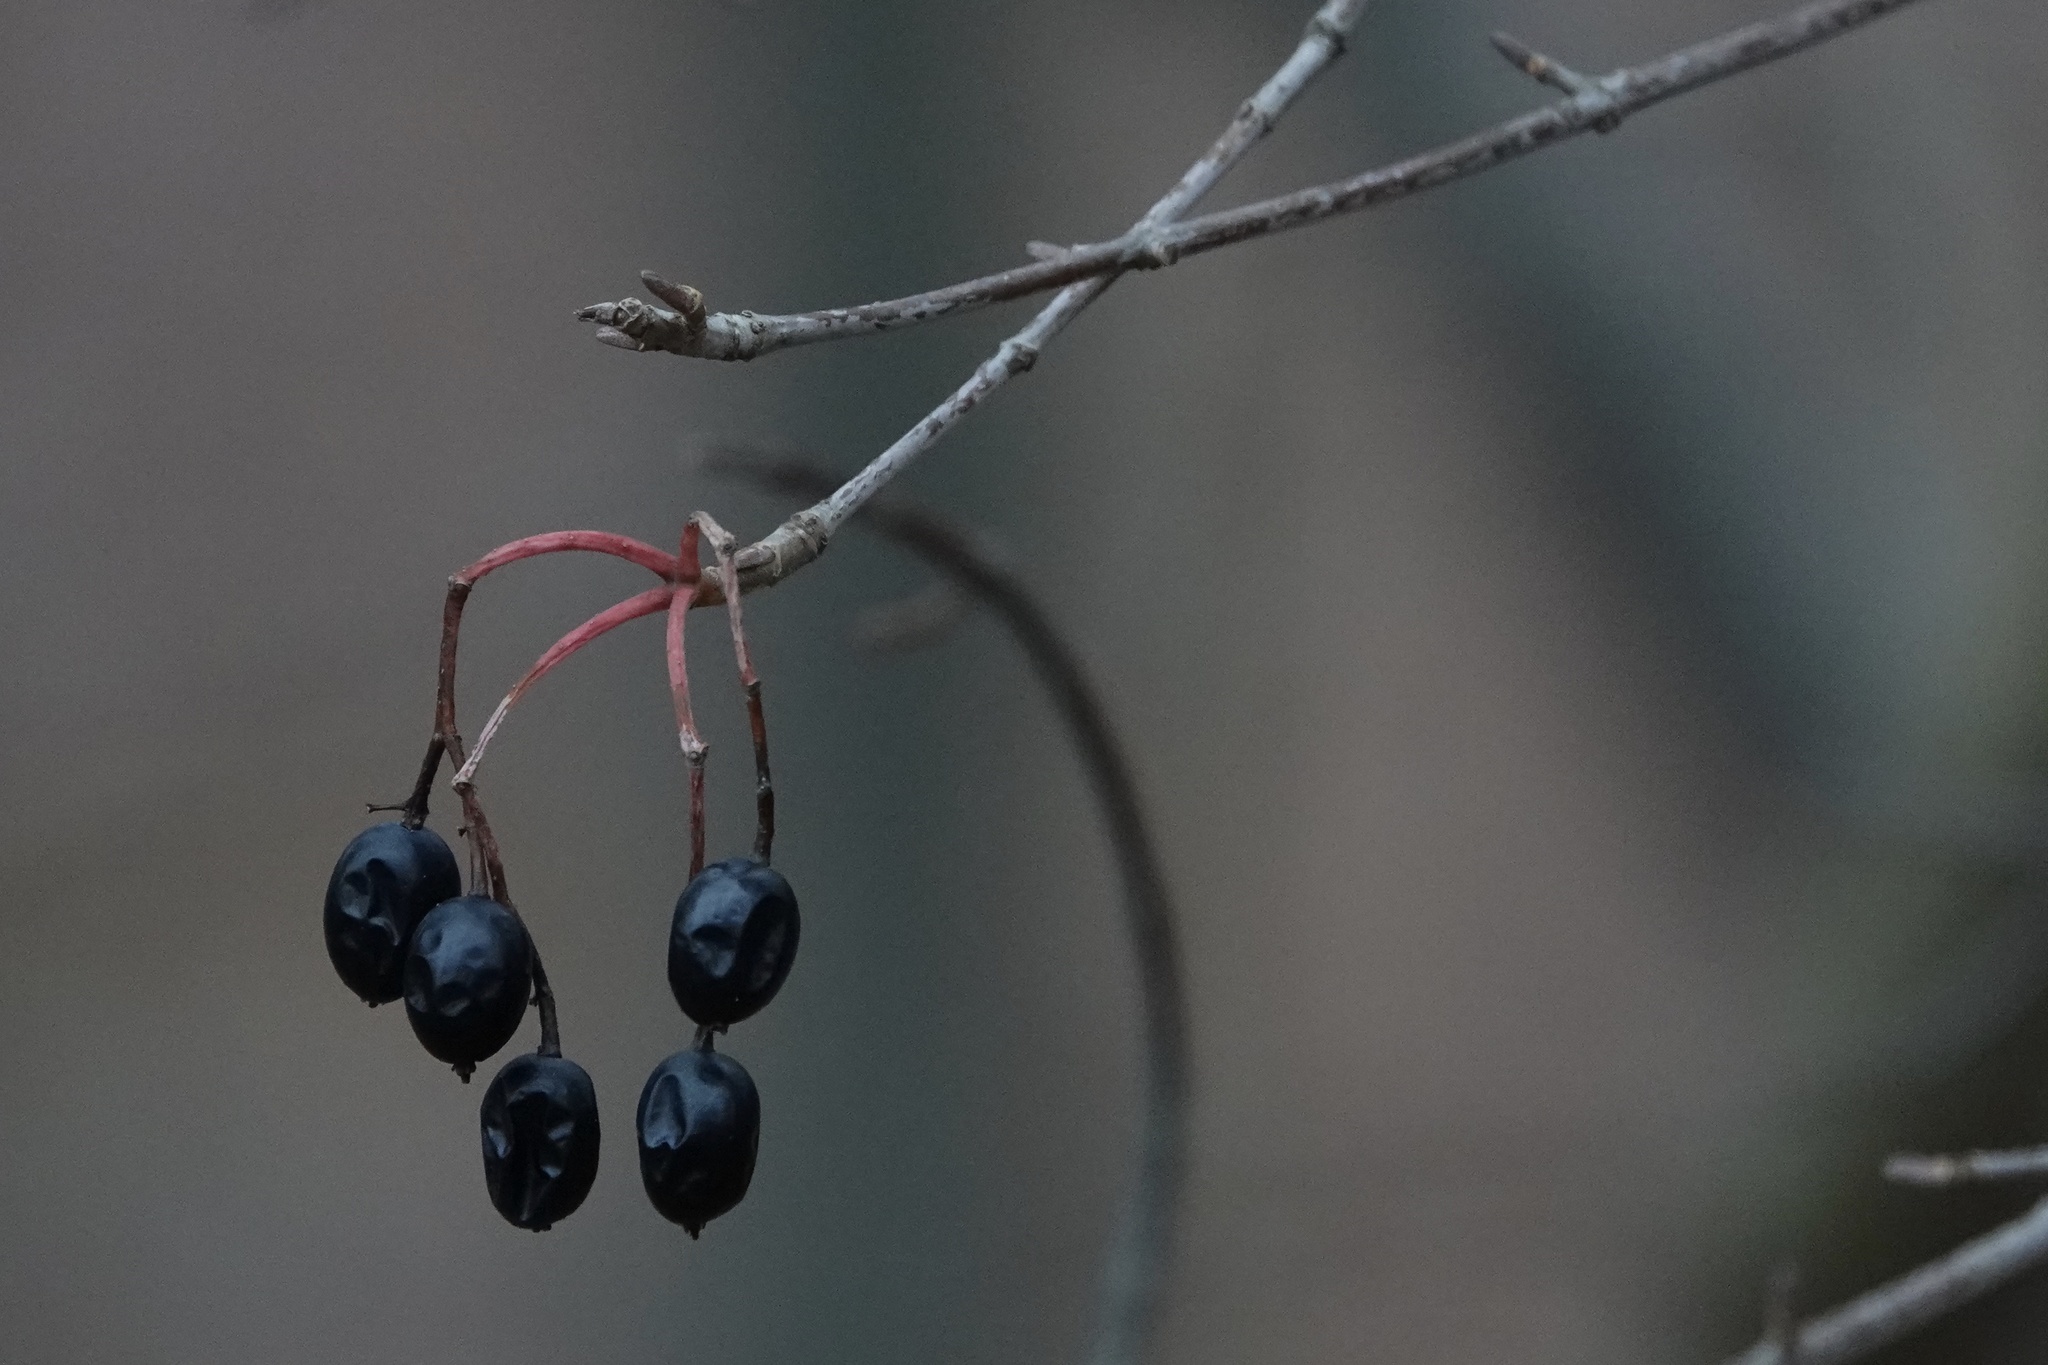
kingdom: Plantae
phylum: Tracheophyta
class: Magnoliopsida
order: Dipsacales
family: Viburnaceae
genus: Viburnum
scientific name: Viburnum prunifolium
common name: Black haw
